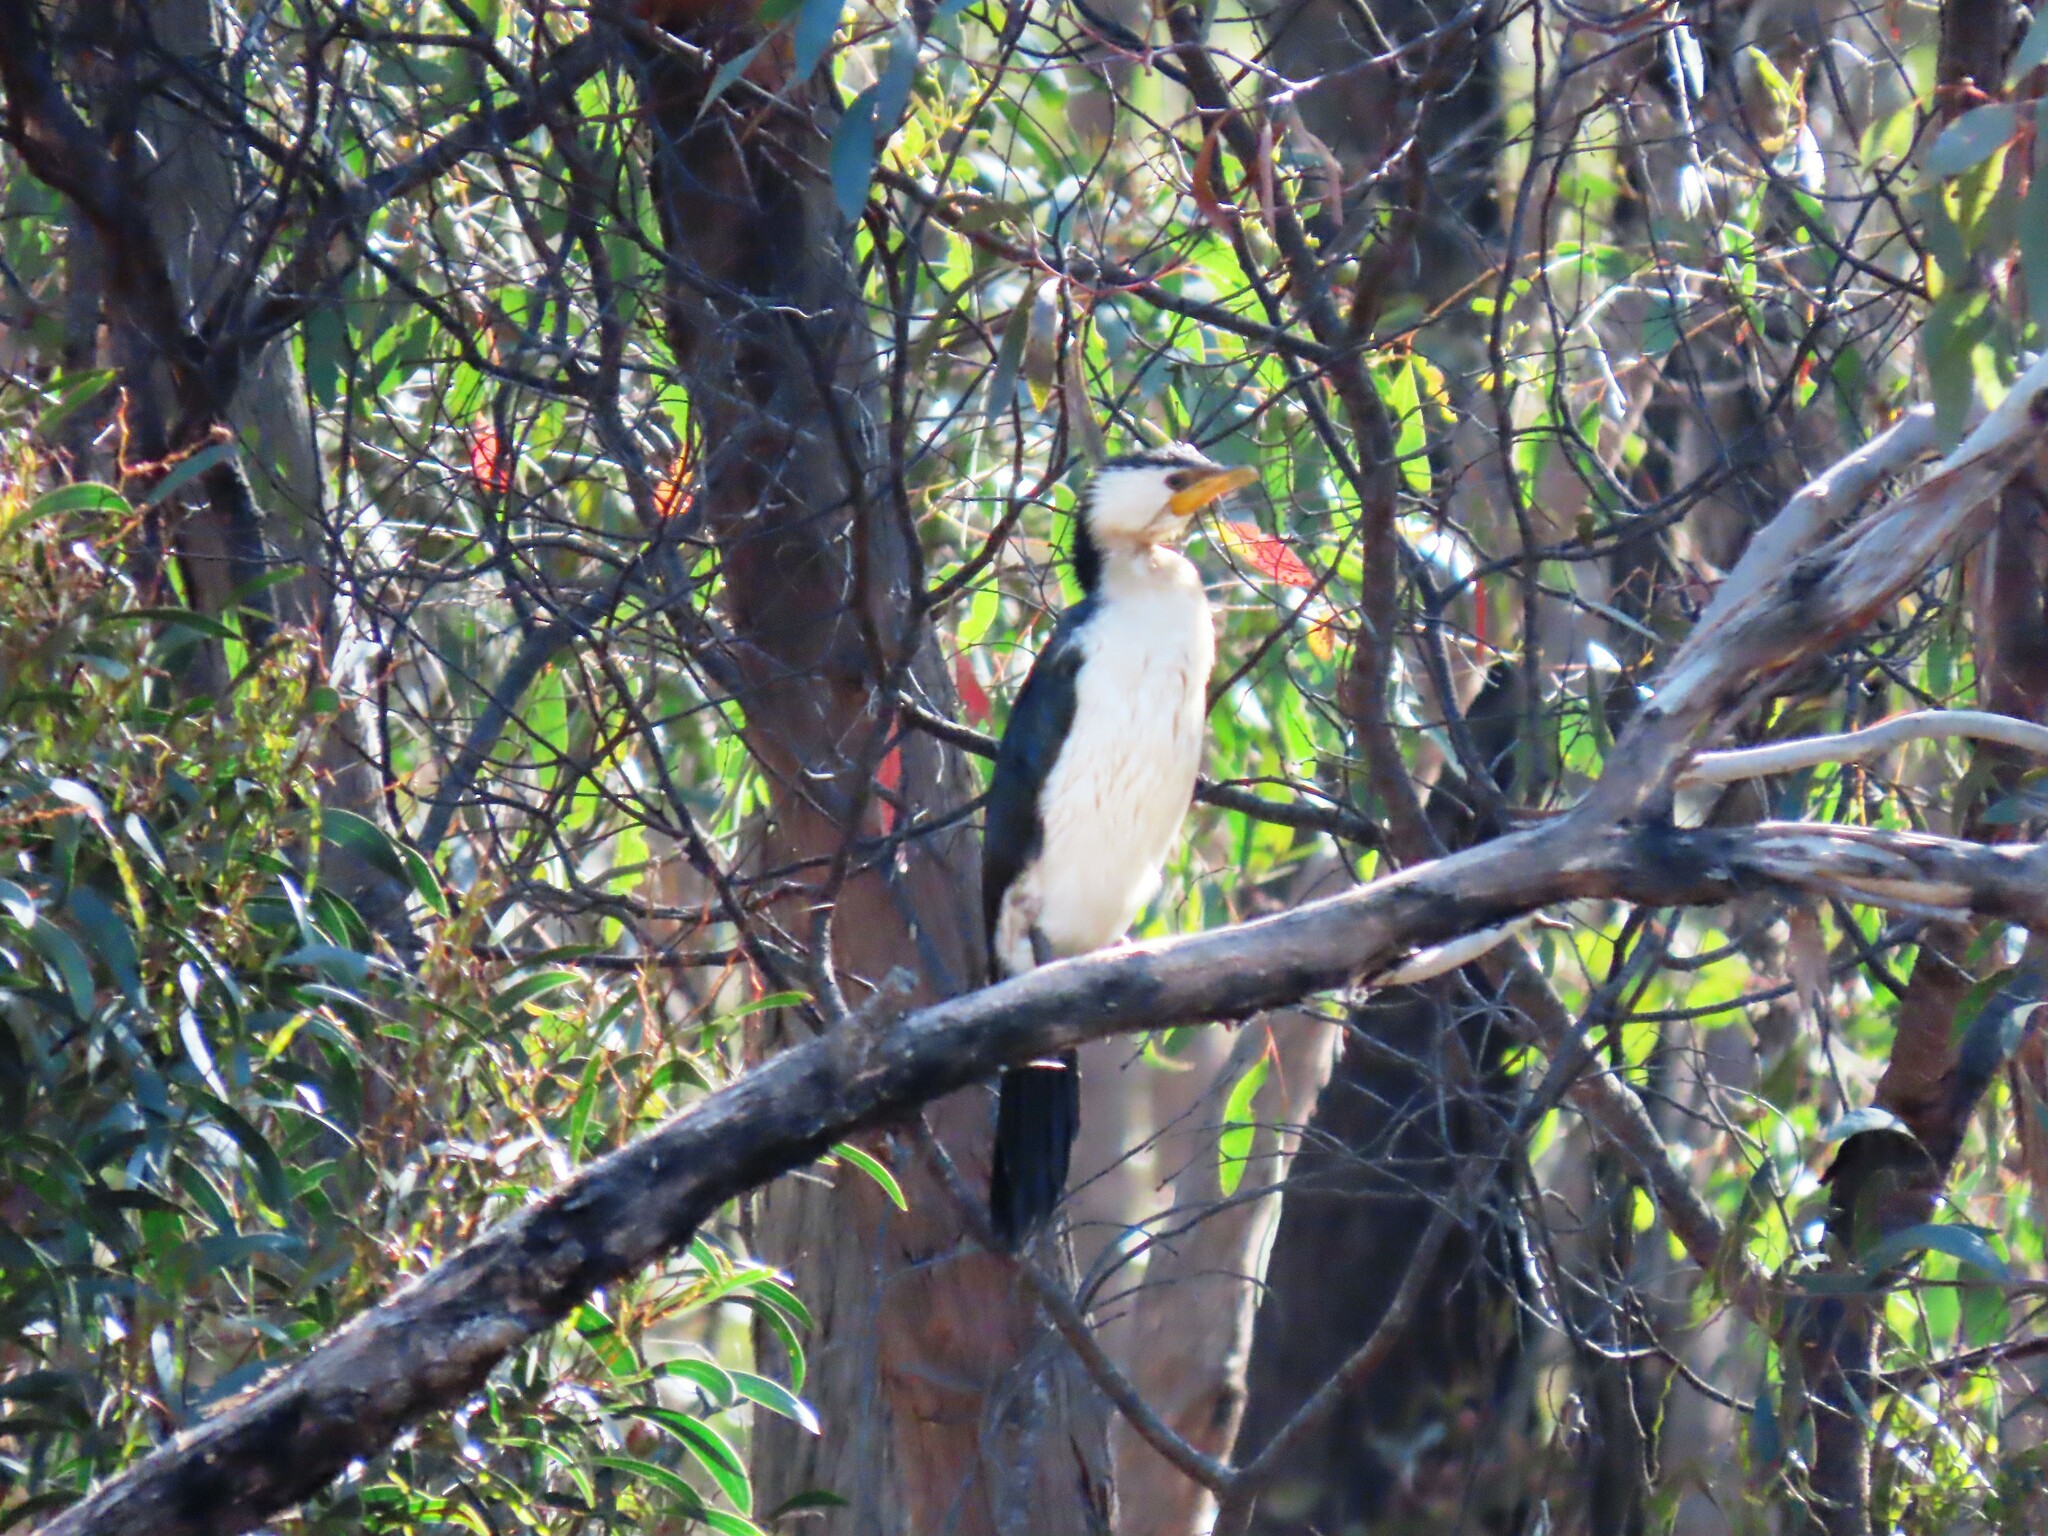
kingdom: Animalia
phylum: Chordata
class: Aves
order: Suliformes
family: Phalacrocoracidae
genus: Microcarbo
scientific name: Microcarbo melanoleucos
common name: Little pied cormorant
